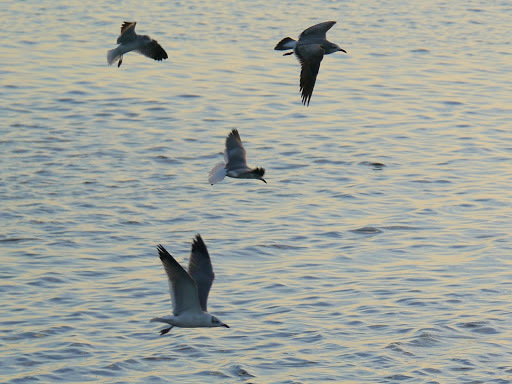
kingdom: Animalia
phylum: Chordata
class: Aves
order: Charadriiformes
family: Laridae
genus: Leucophaeus
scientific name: Leucophaeus atricilla
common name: Laughing gull
